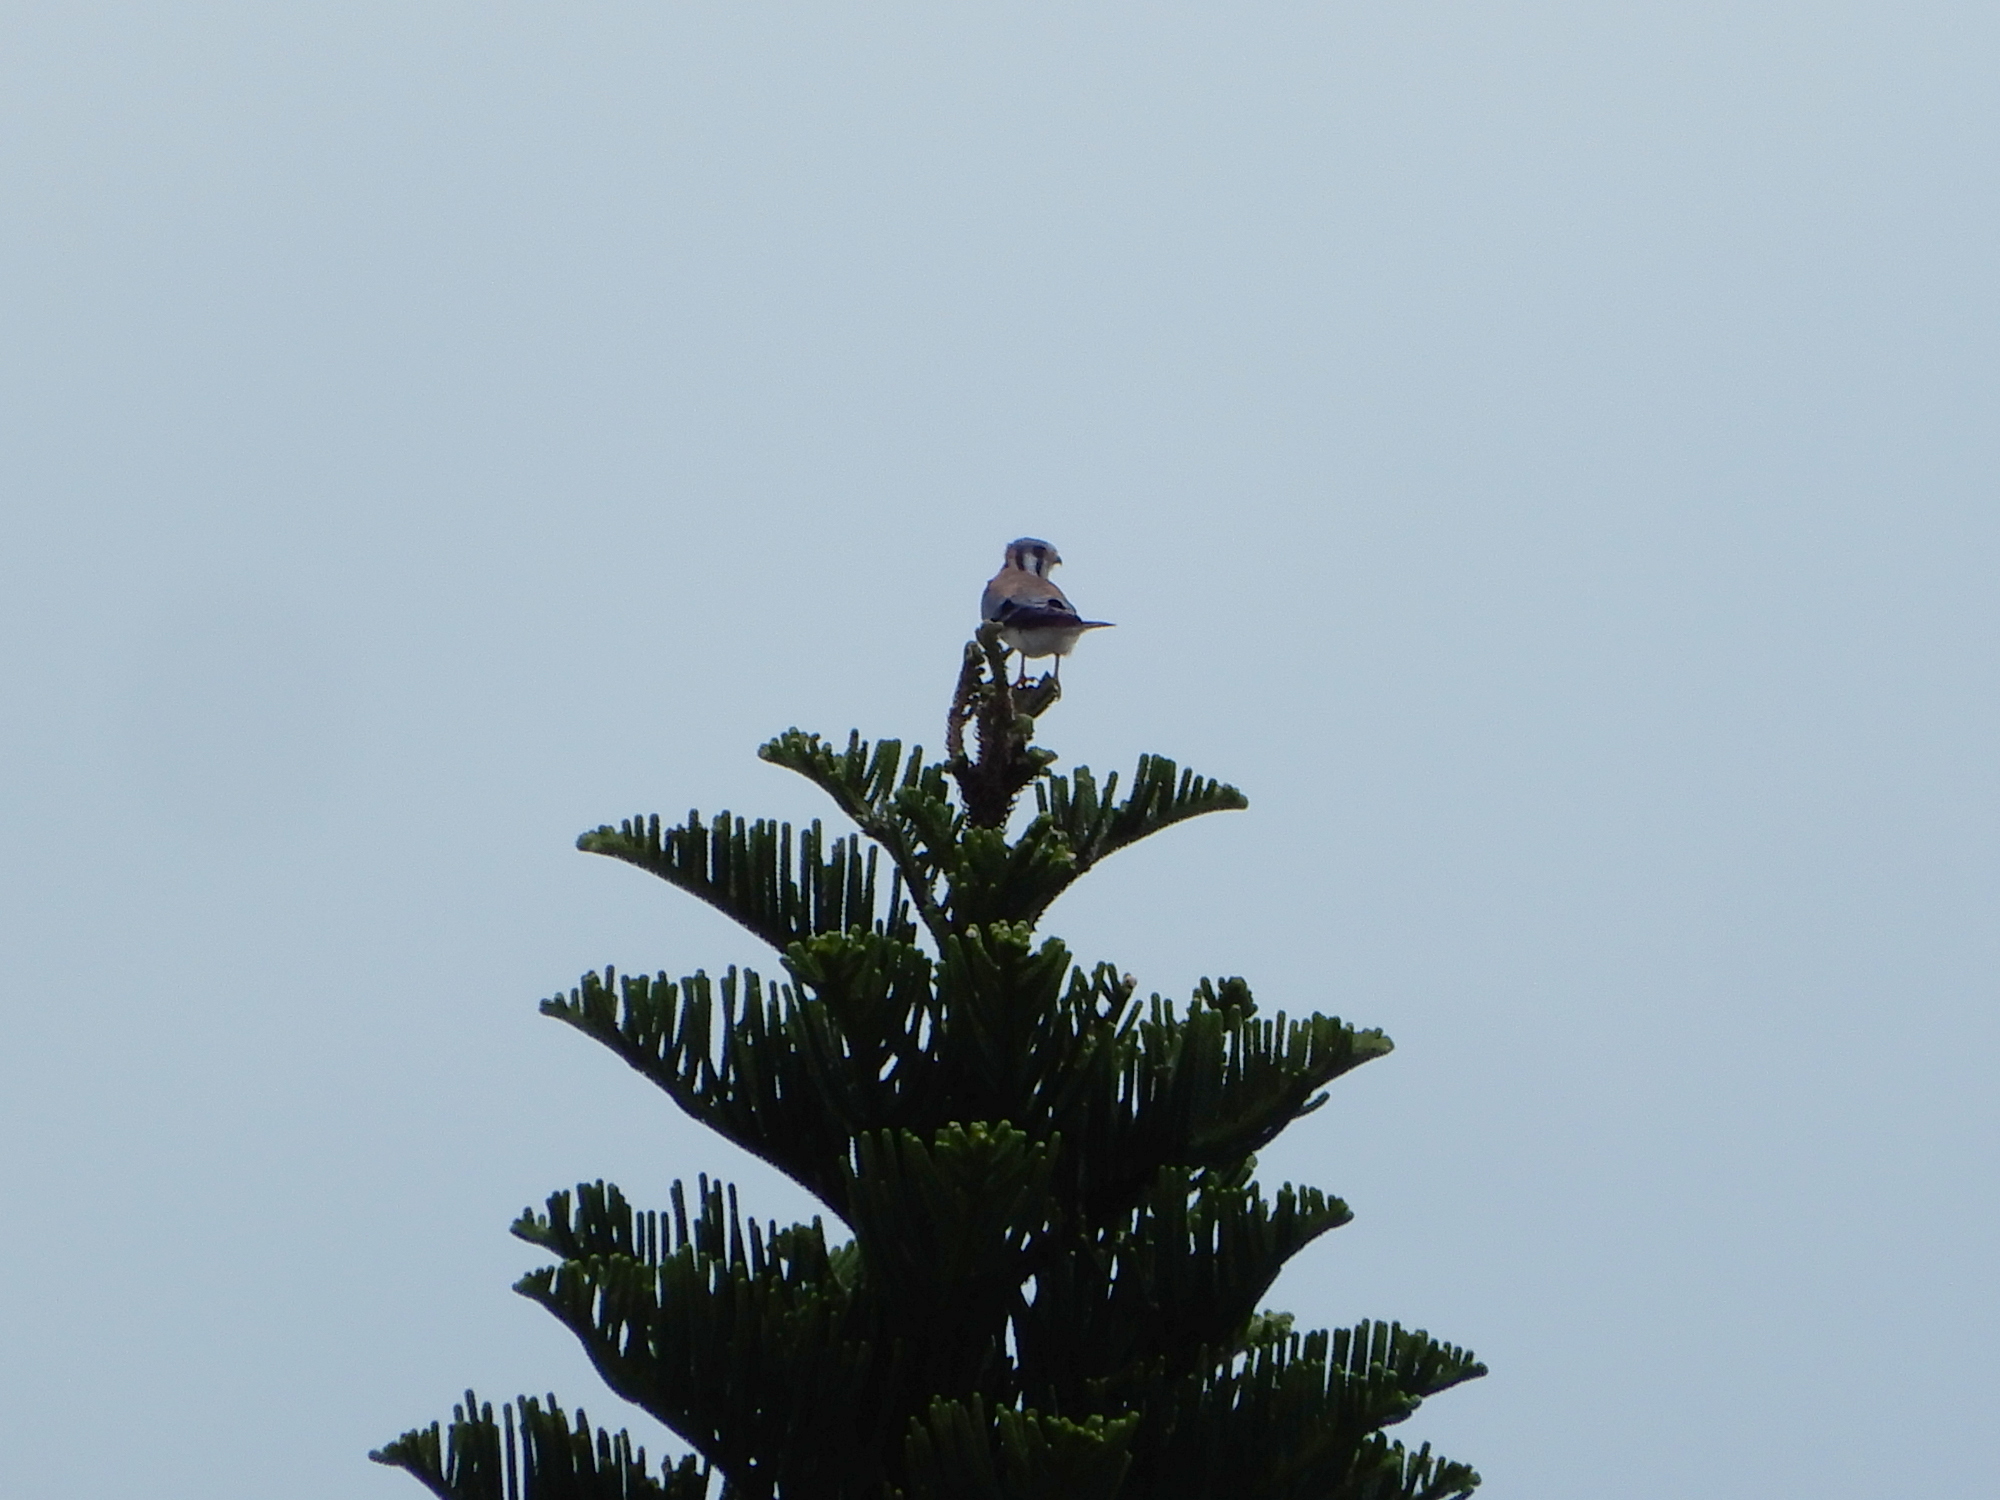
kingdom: Animalia
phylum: Chordata
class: Aves
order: Falconiformes
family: Falconidae
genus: Falco
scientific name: Falco sparverius
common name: American kestrel
